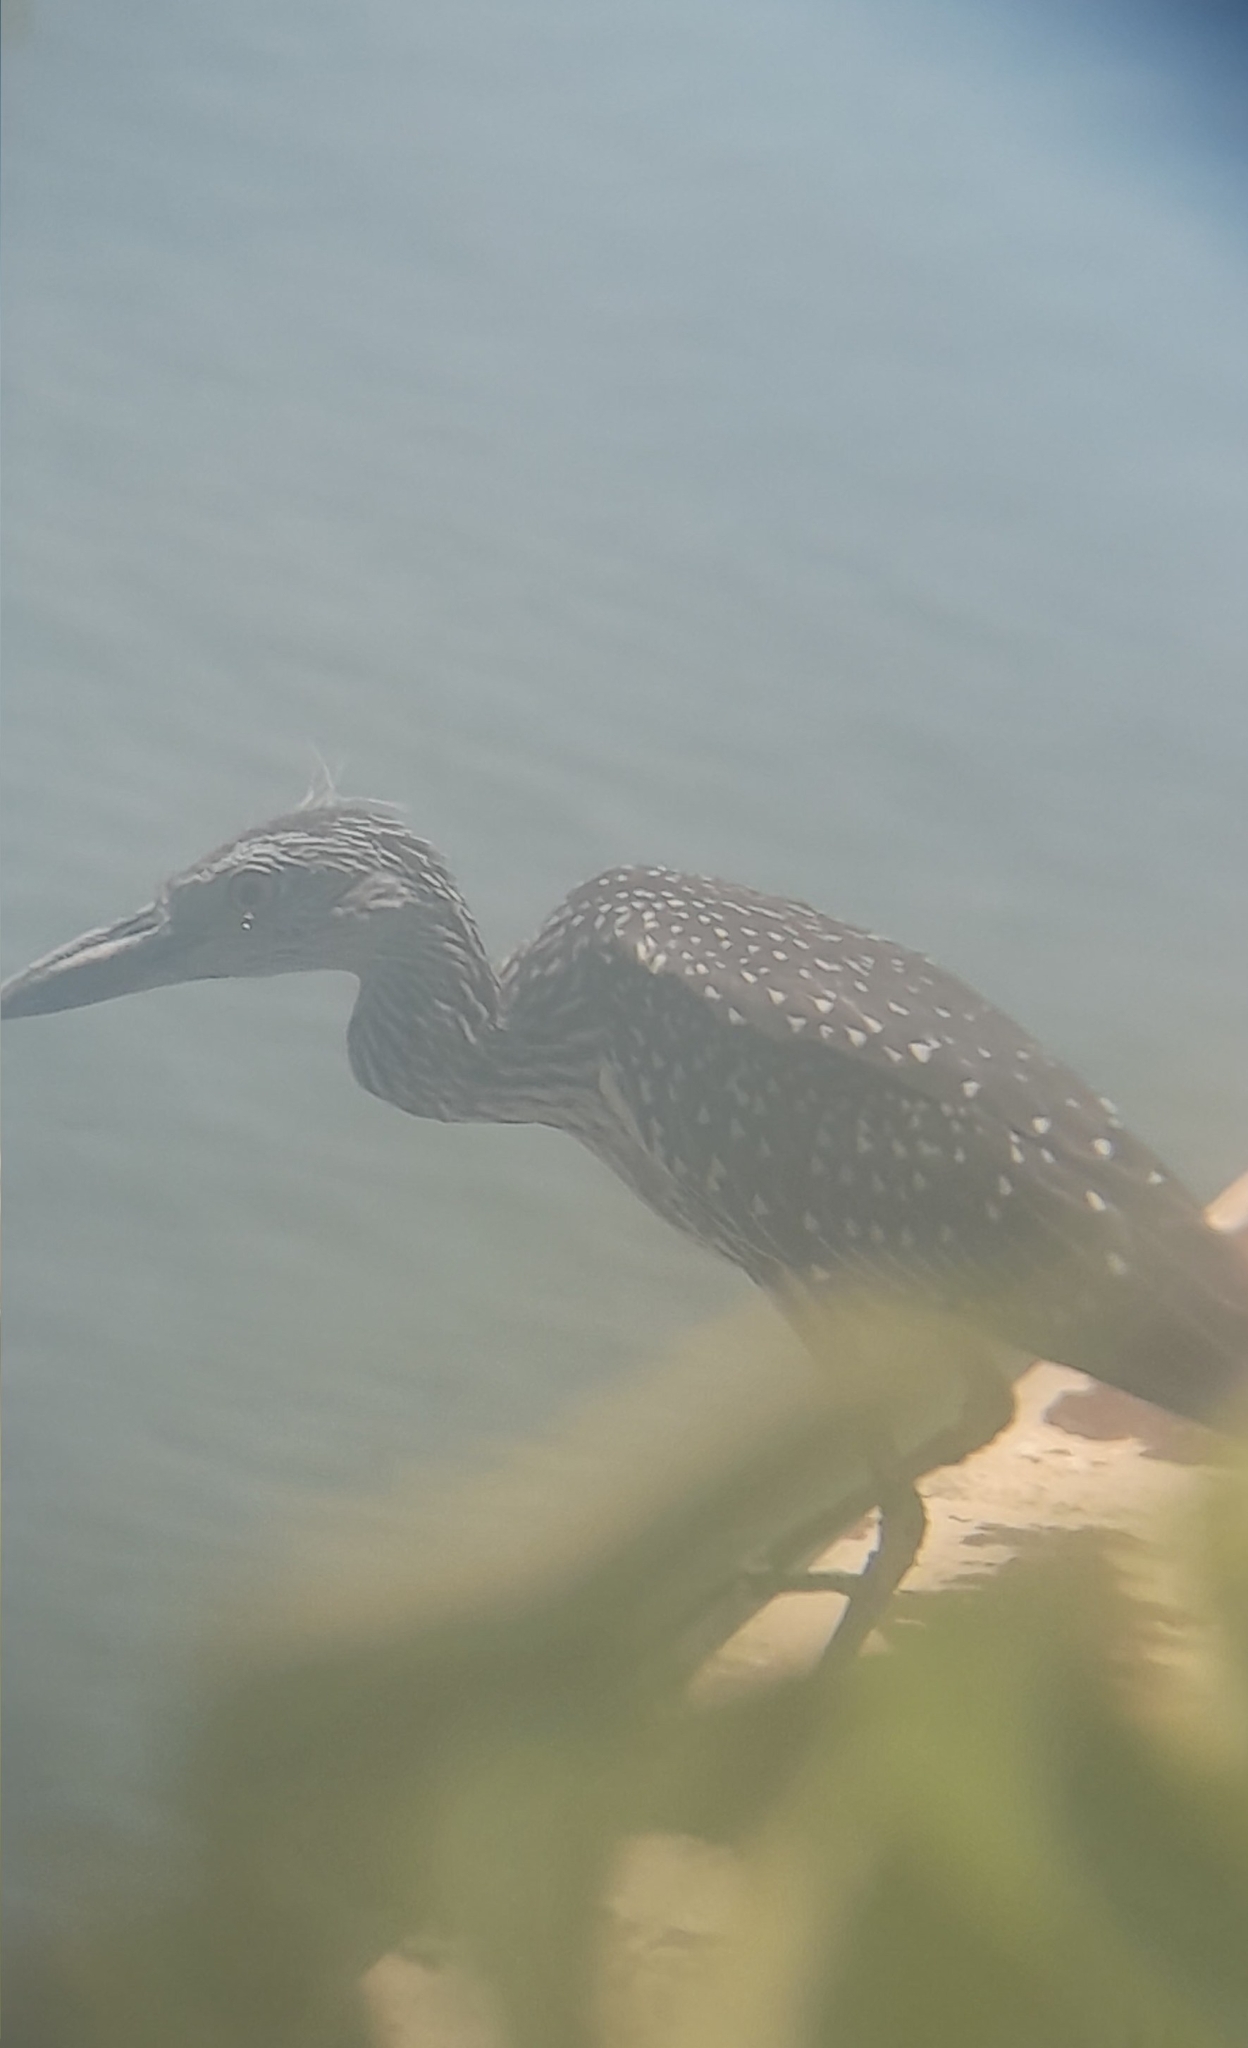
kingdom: Animalia
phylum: Chordata
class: Aves
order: Pelecaniformes
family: Ardeidae
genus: Nyctanassa
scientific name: Nyctanassa violacea
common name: Yellow-crowned night heron
